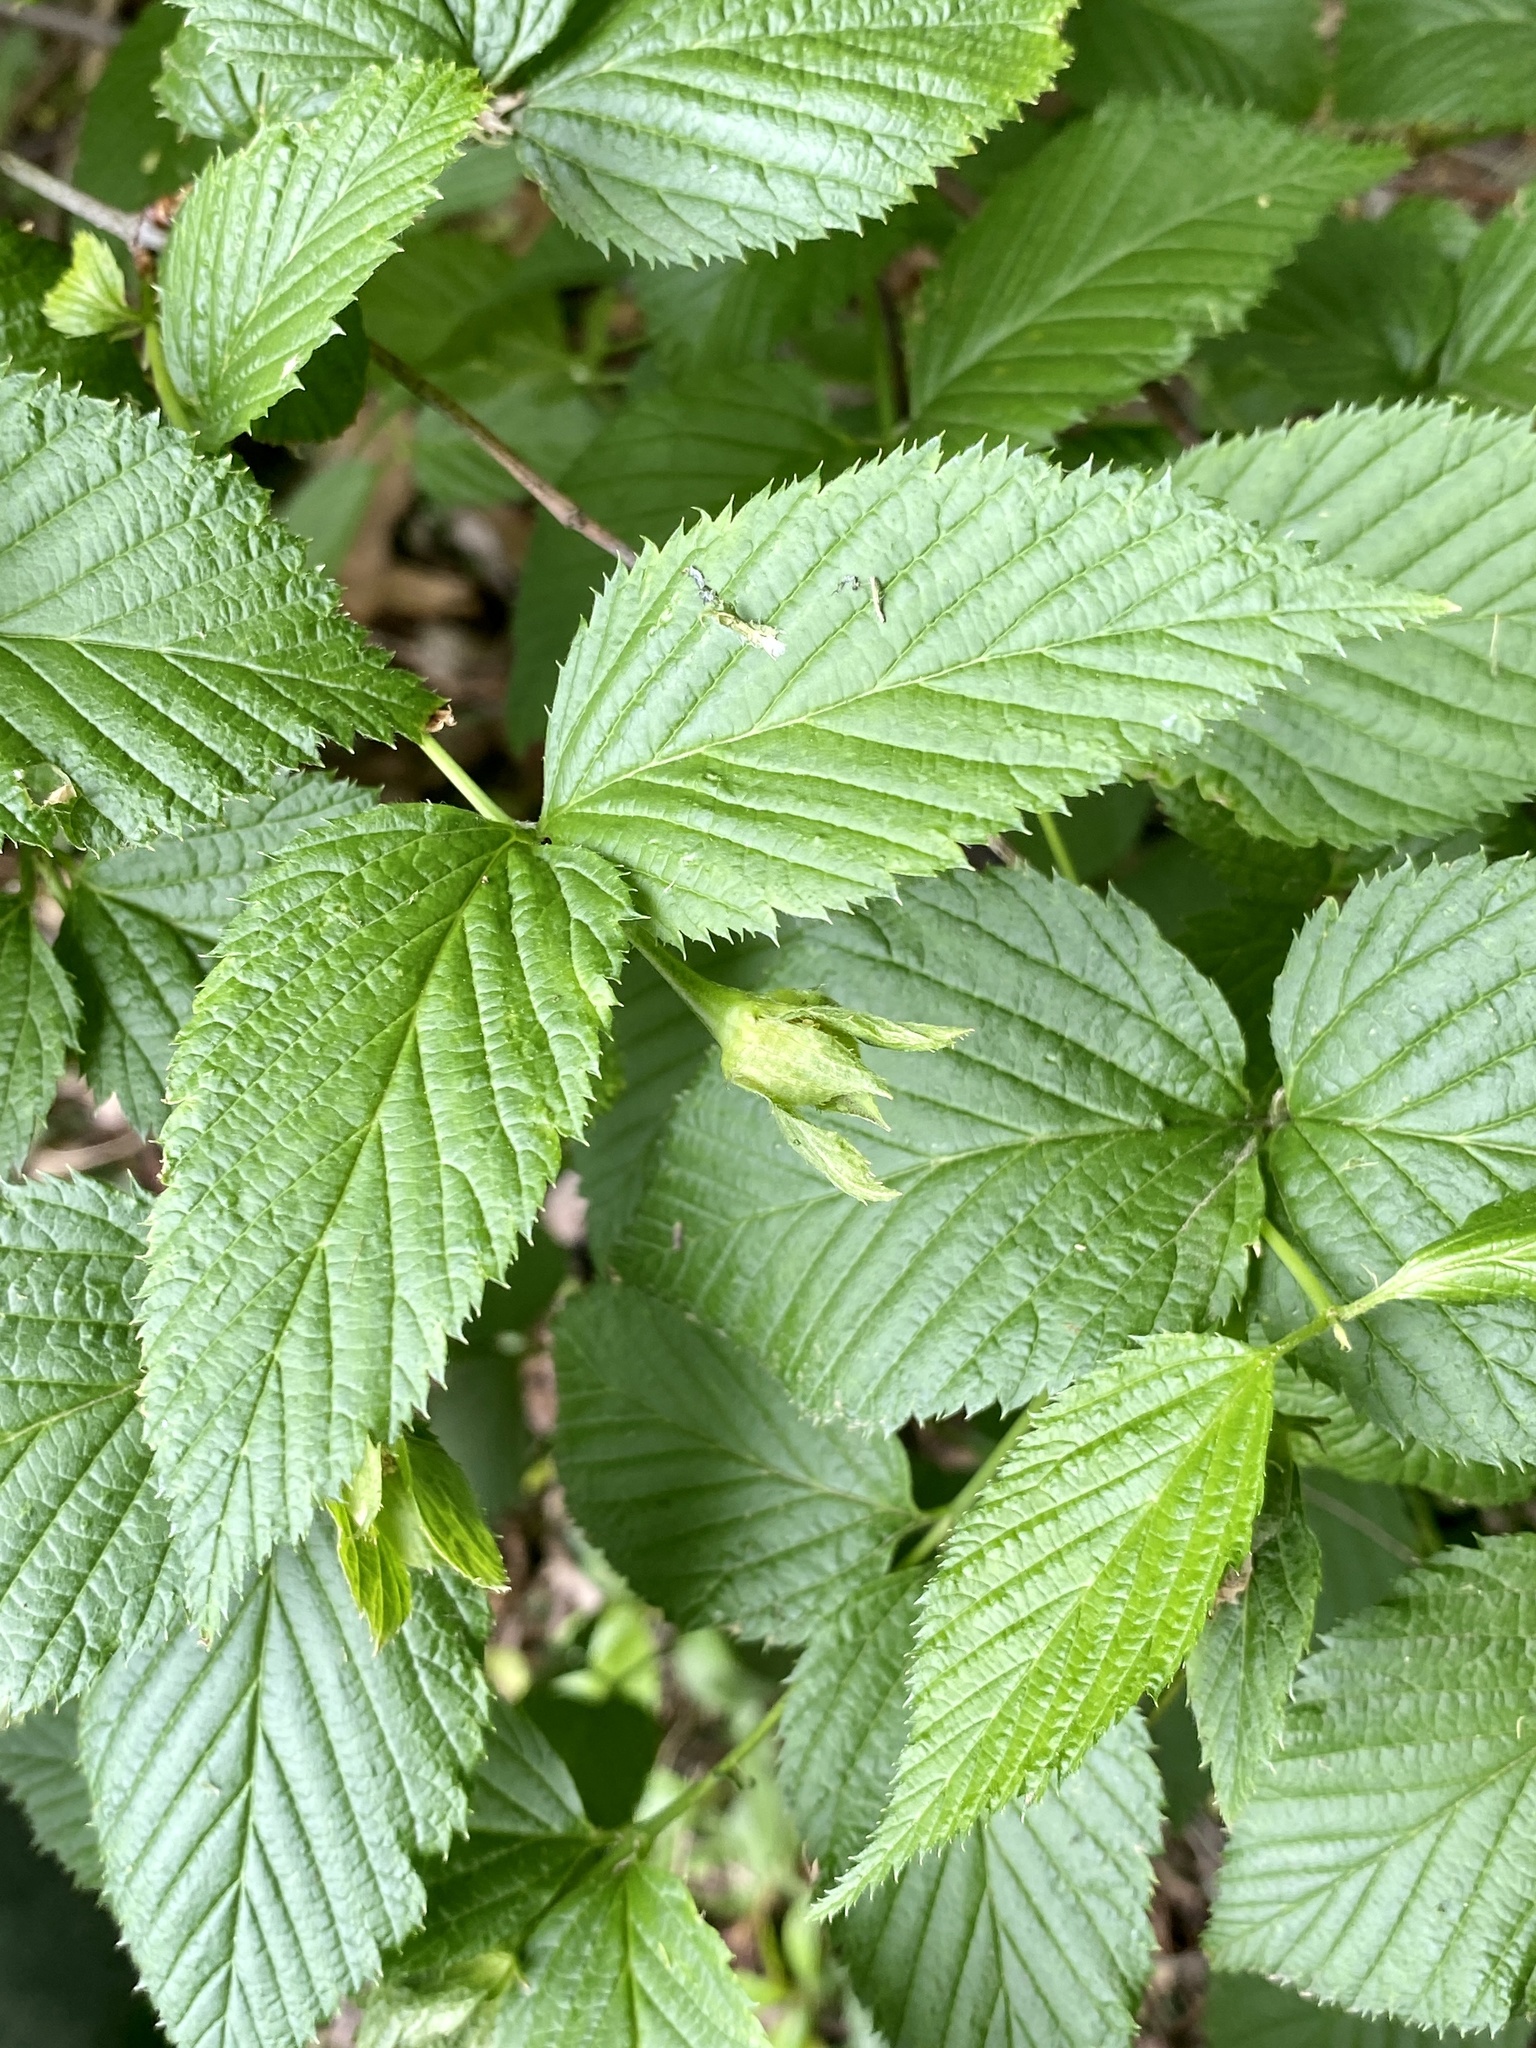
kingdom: Plantae
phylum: Tracheophyta
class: Magnoliopsida
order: Rosales
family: Rosaceae
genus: Rhodotypos
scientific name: Rhodotypos scandens
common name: Jetbead
